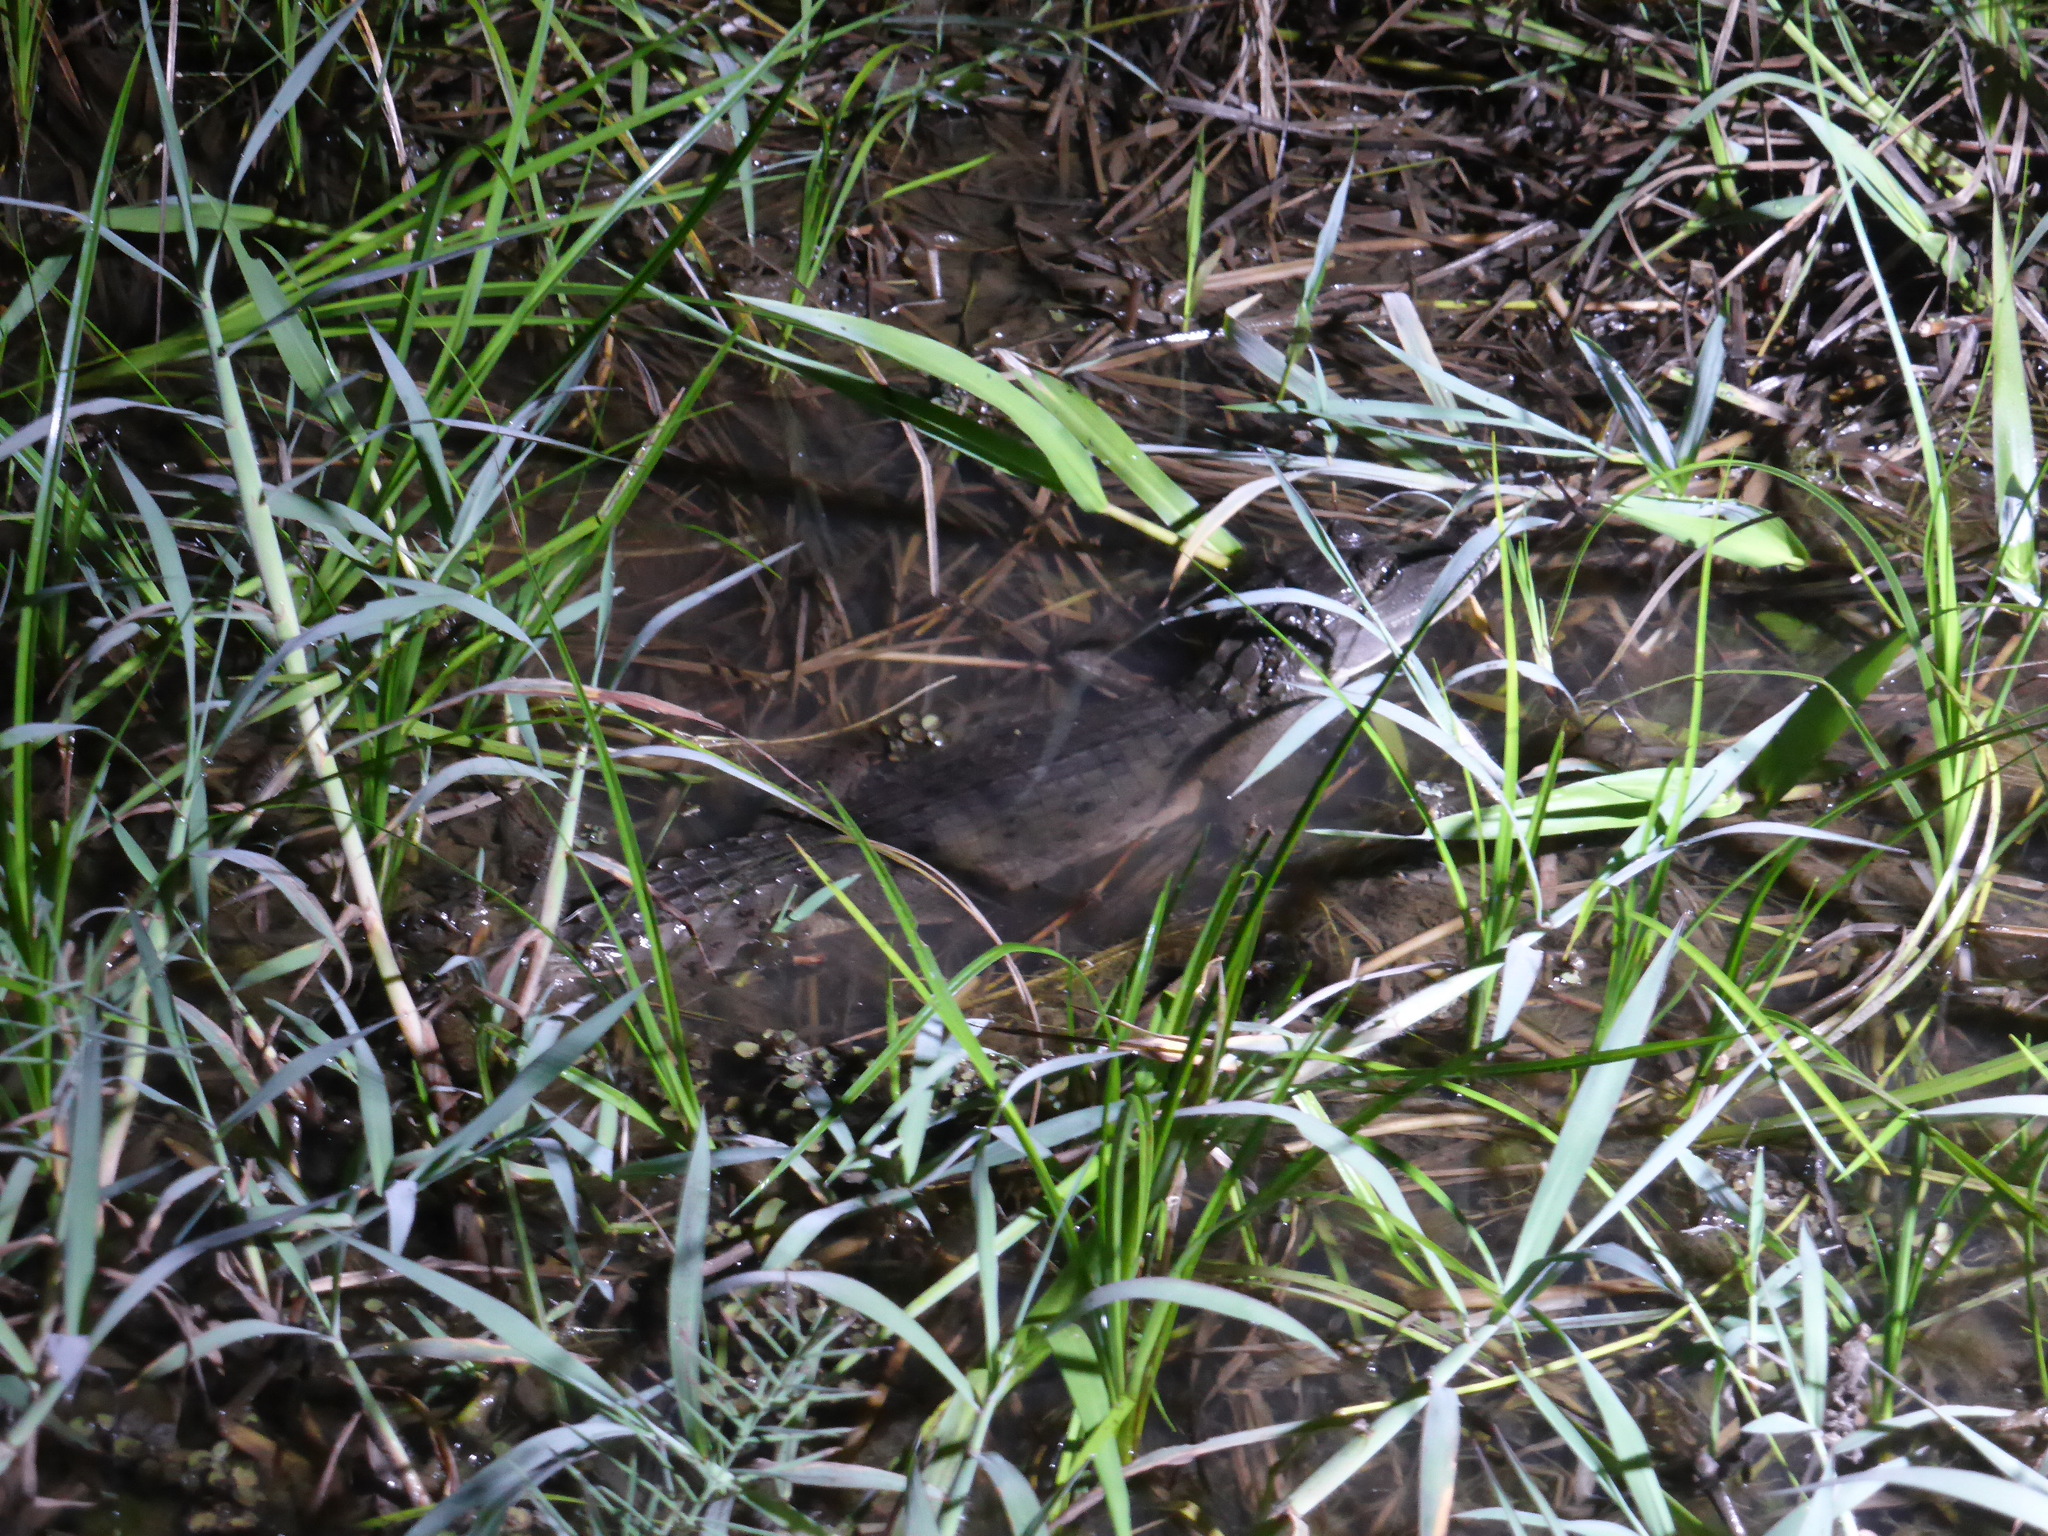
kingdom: Animalia
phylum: Chordata
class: Crocodylia
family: Alligatoridae
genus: Caiman
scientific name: Caiman crocodilus
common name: Common caiman
